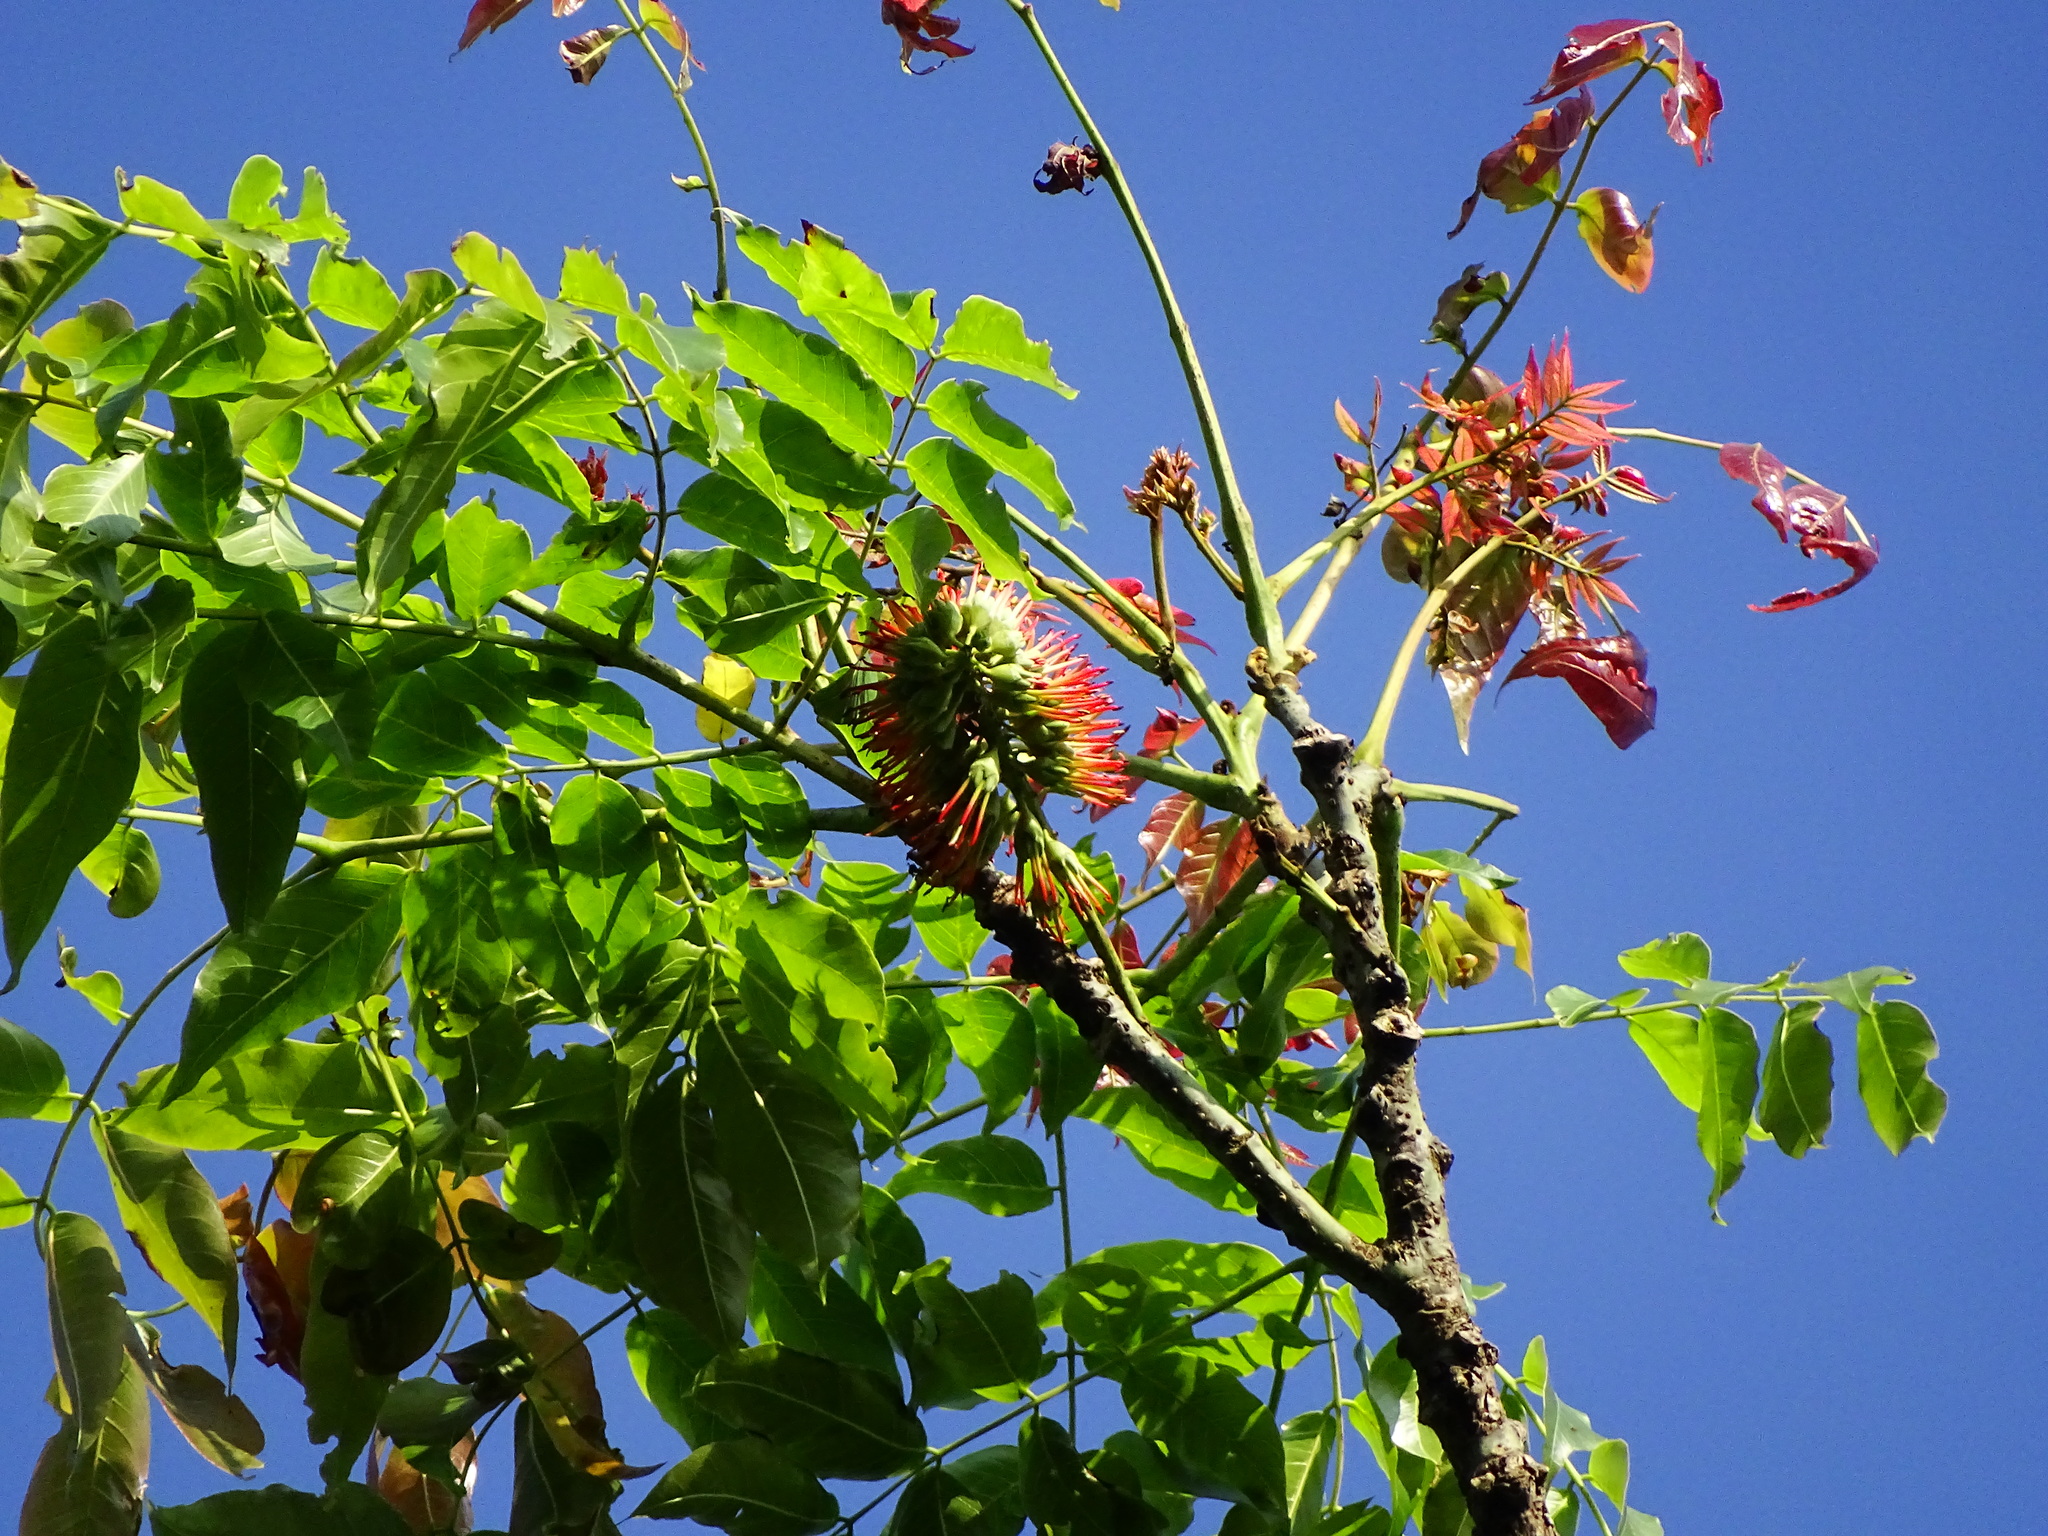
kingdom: Plantae
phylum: Tracheophyta
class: Magnoliopsida
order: Fabales
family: Fabaceae
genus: Acrocarpus
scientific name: Acrocarpus fraxinifolius
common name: Kenya coffeeshade
